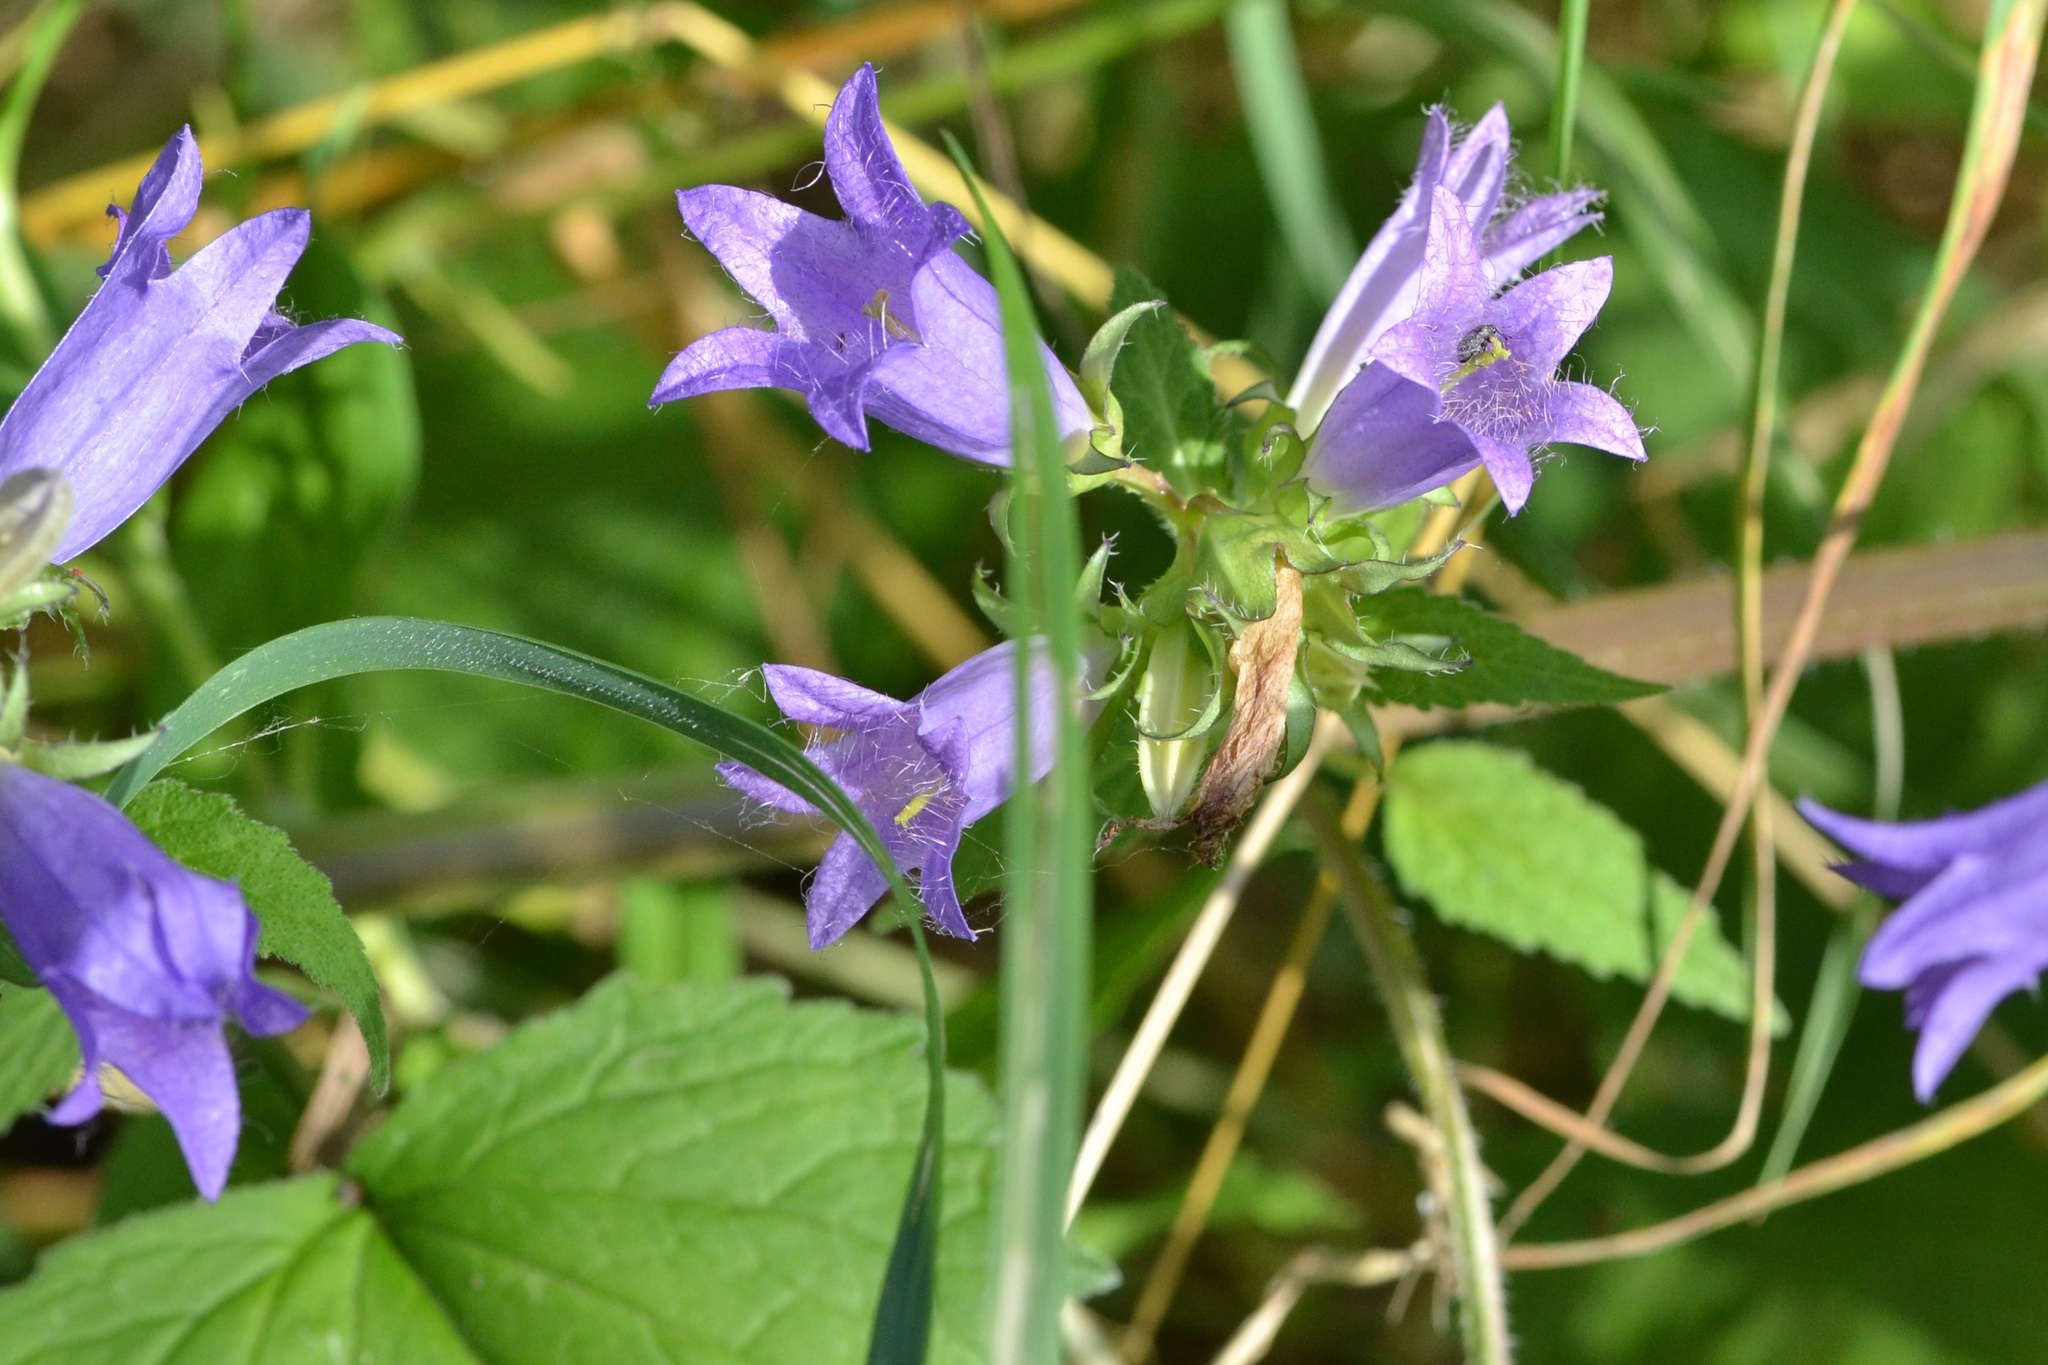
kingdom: Plantae
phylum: Tracheophyta
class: Magnoliopsida
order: Asterales
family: Campanulaceae
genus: Campanula
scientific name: Campanula trachelium
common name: Nettle-leaved bellflower
